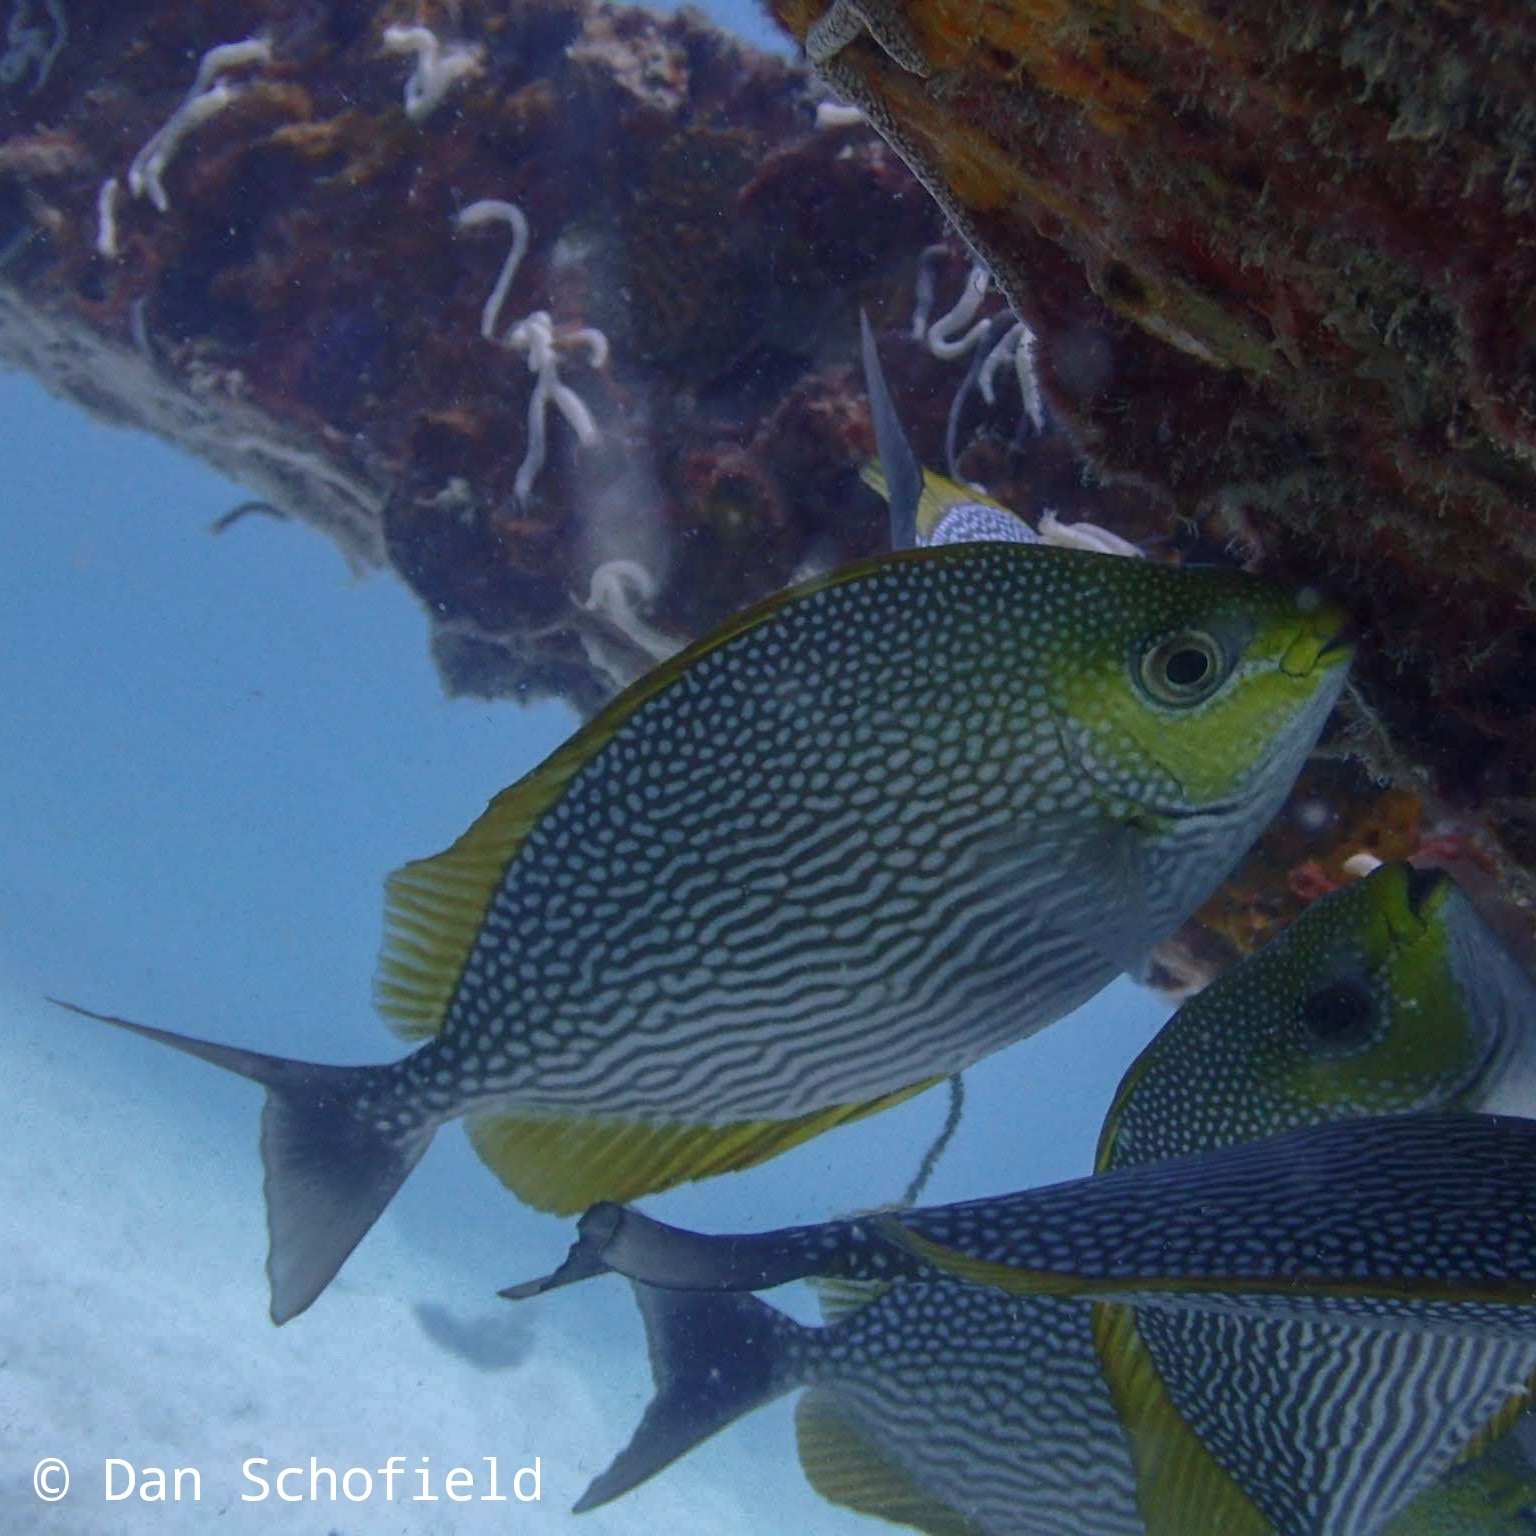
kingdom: Animalia
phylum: Chordata
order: Perciformes
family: Siganidae
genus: Siganus
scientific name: Siganus javus
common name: Java rabbitfish
